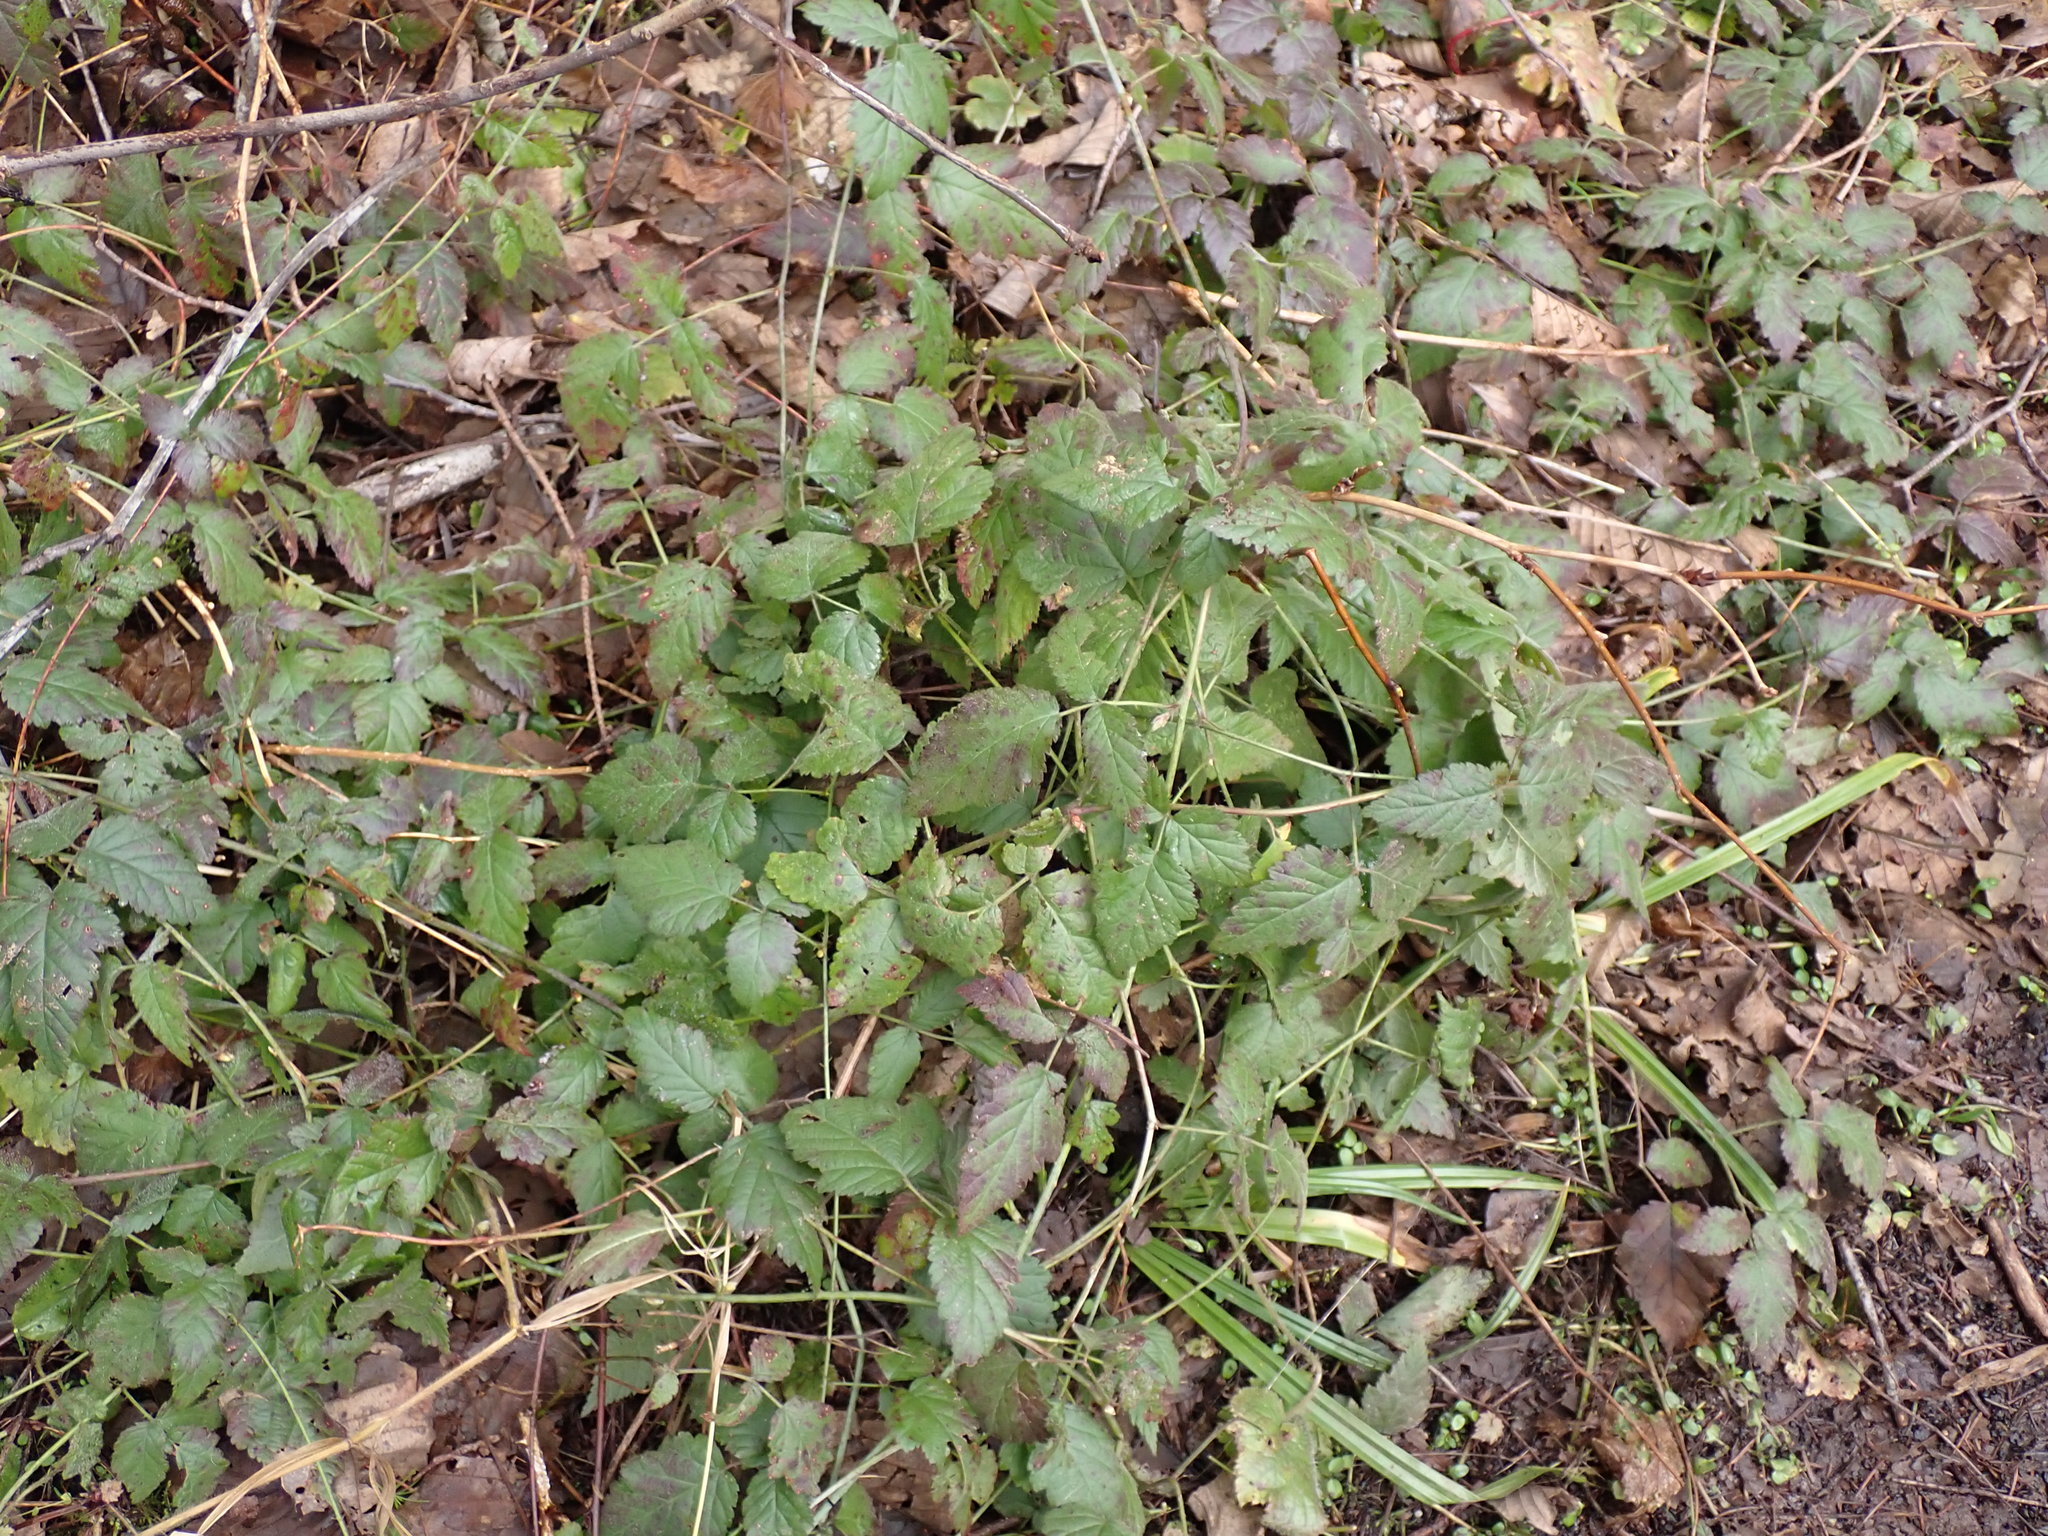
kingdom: Plantae
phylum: Tracheophyta
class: Magnoliopsida
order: Rosales
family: Rosaceae
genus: Rubus
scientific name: Rubus ursinus
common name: Pacific blackberry
